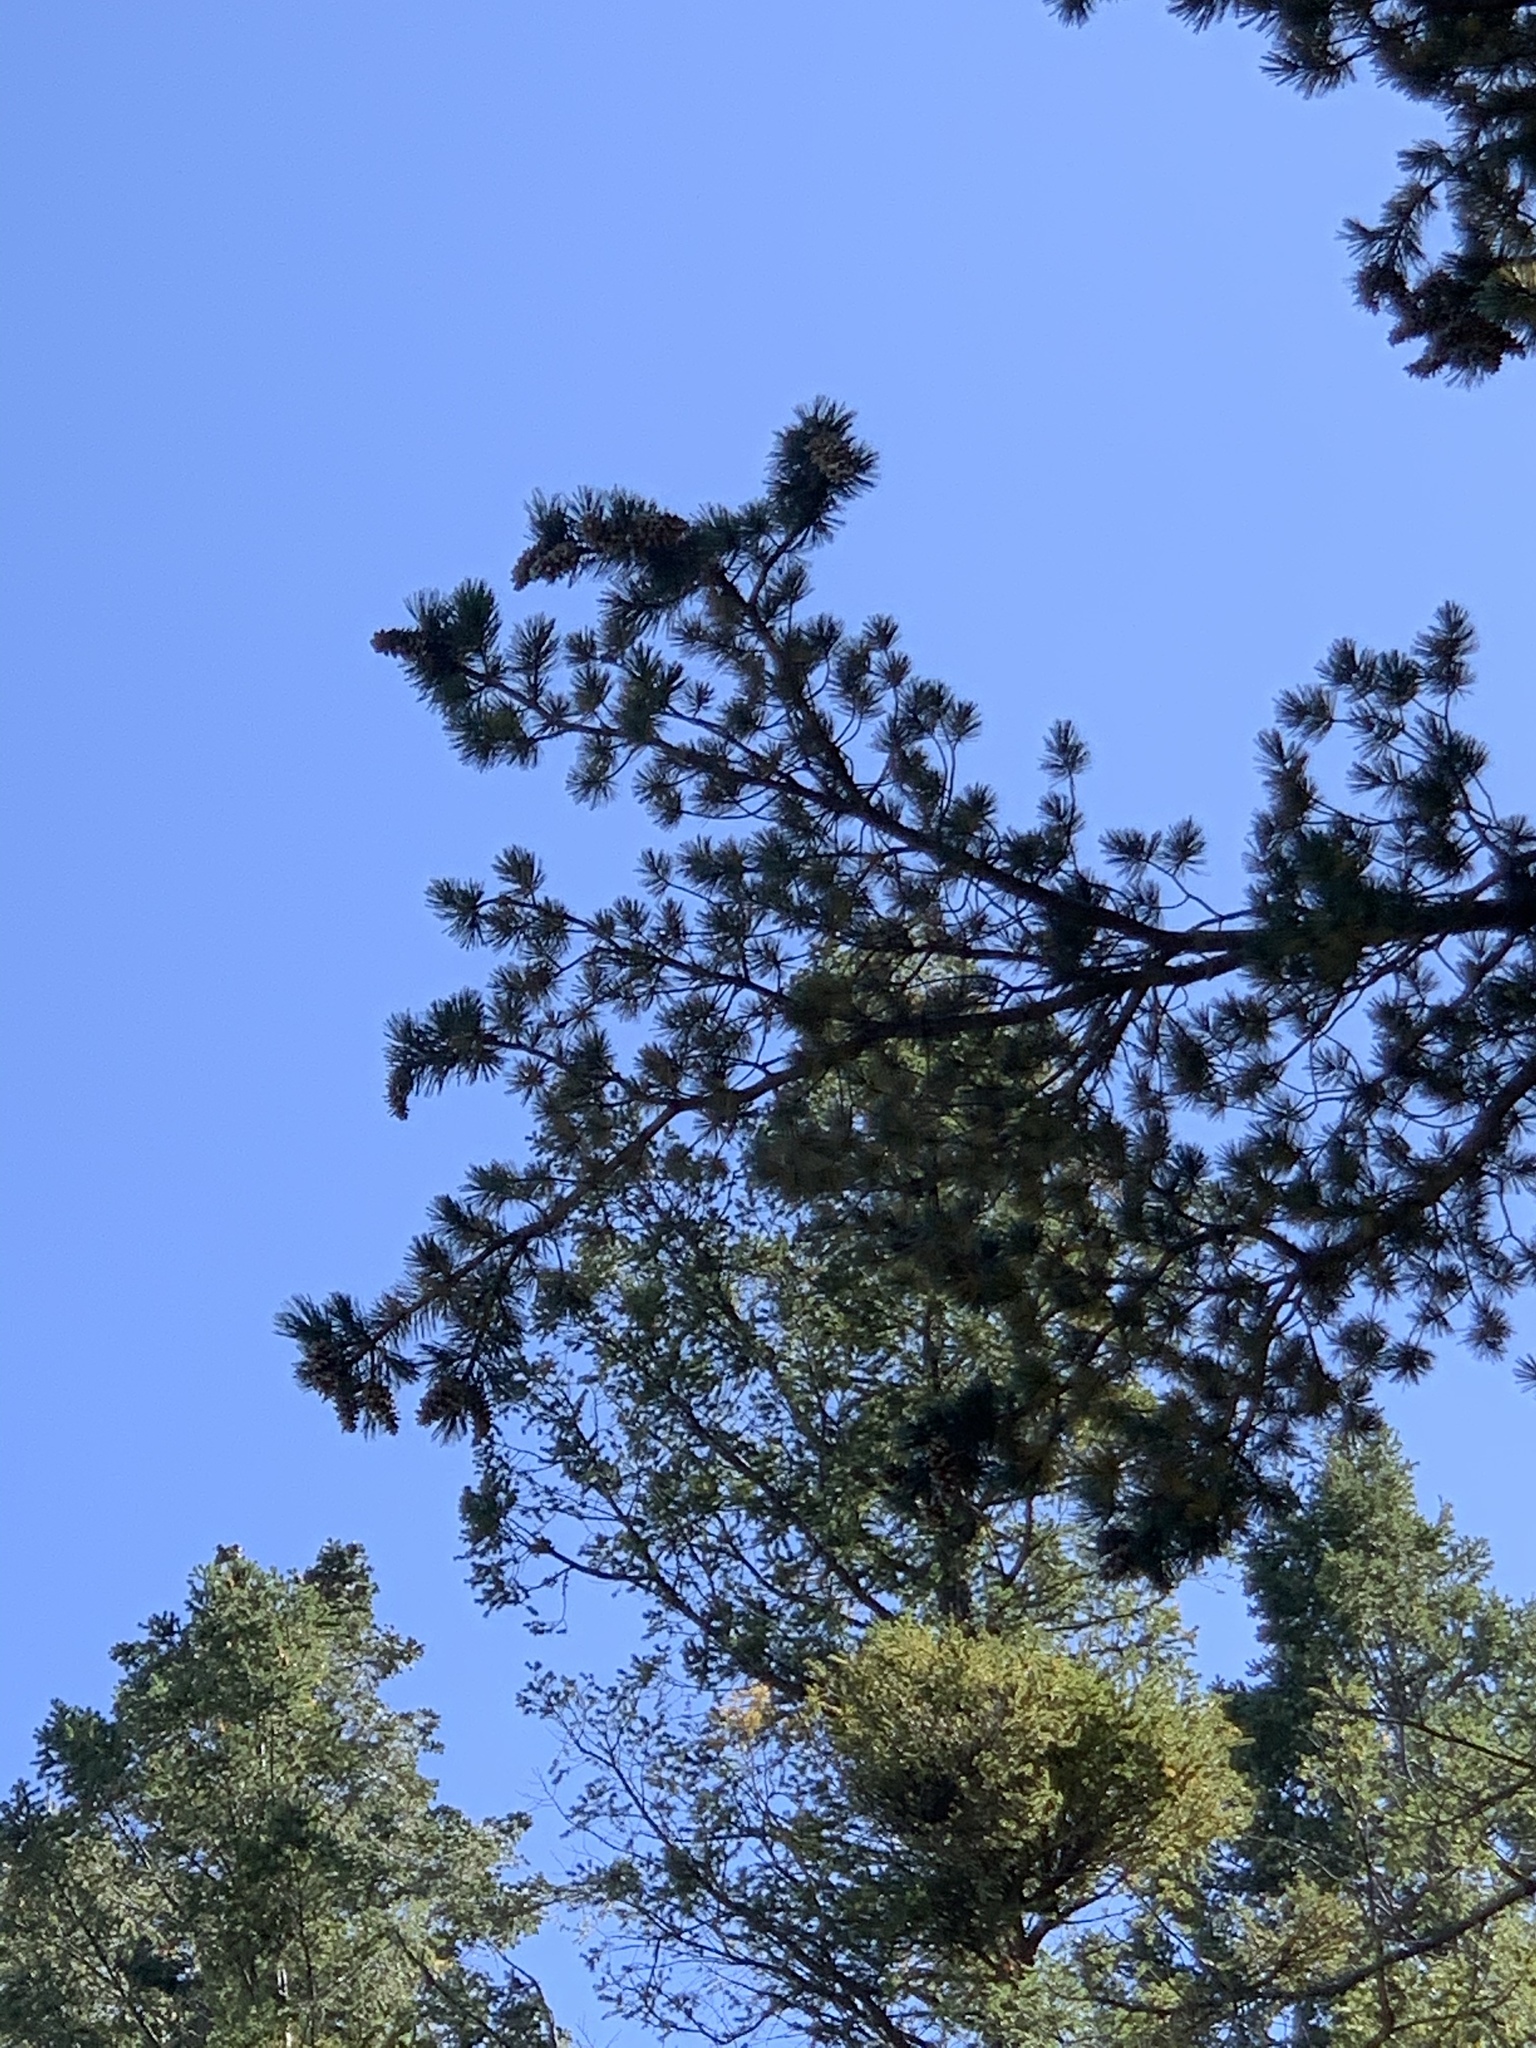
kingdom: Plantae
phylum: Tracheophyta
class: Pinopsida
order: Pinales
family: Pinaceae
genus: Pinus
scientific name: Pinus strobiformis
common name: Southwestern white pine
